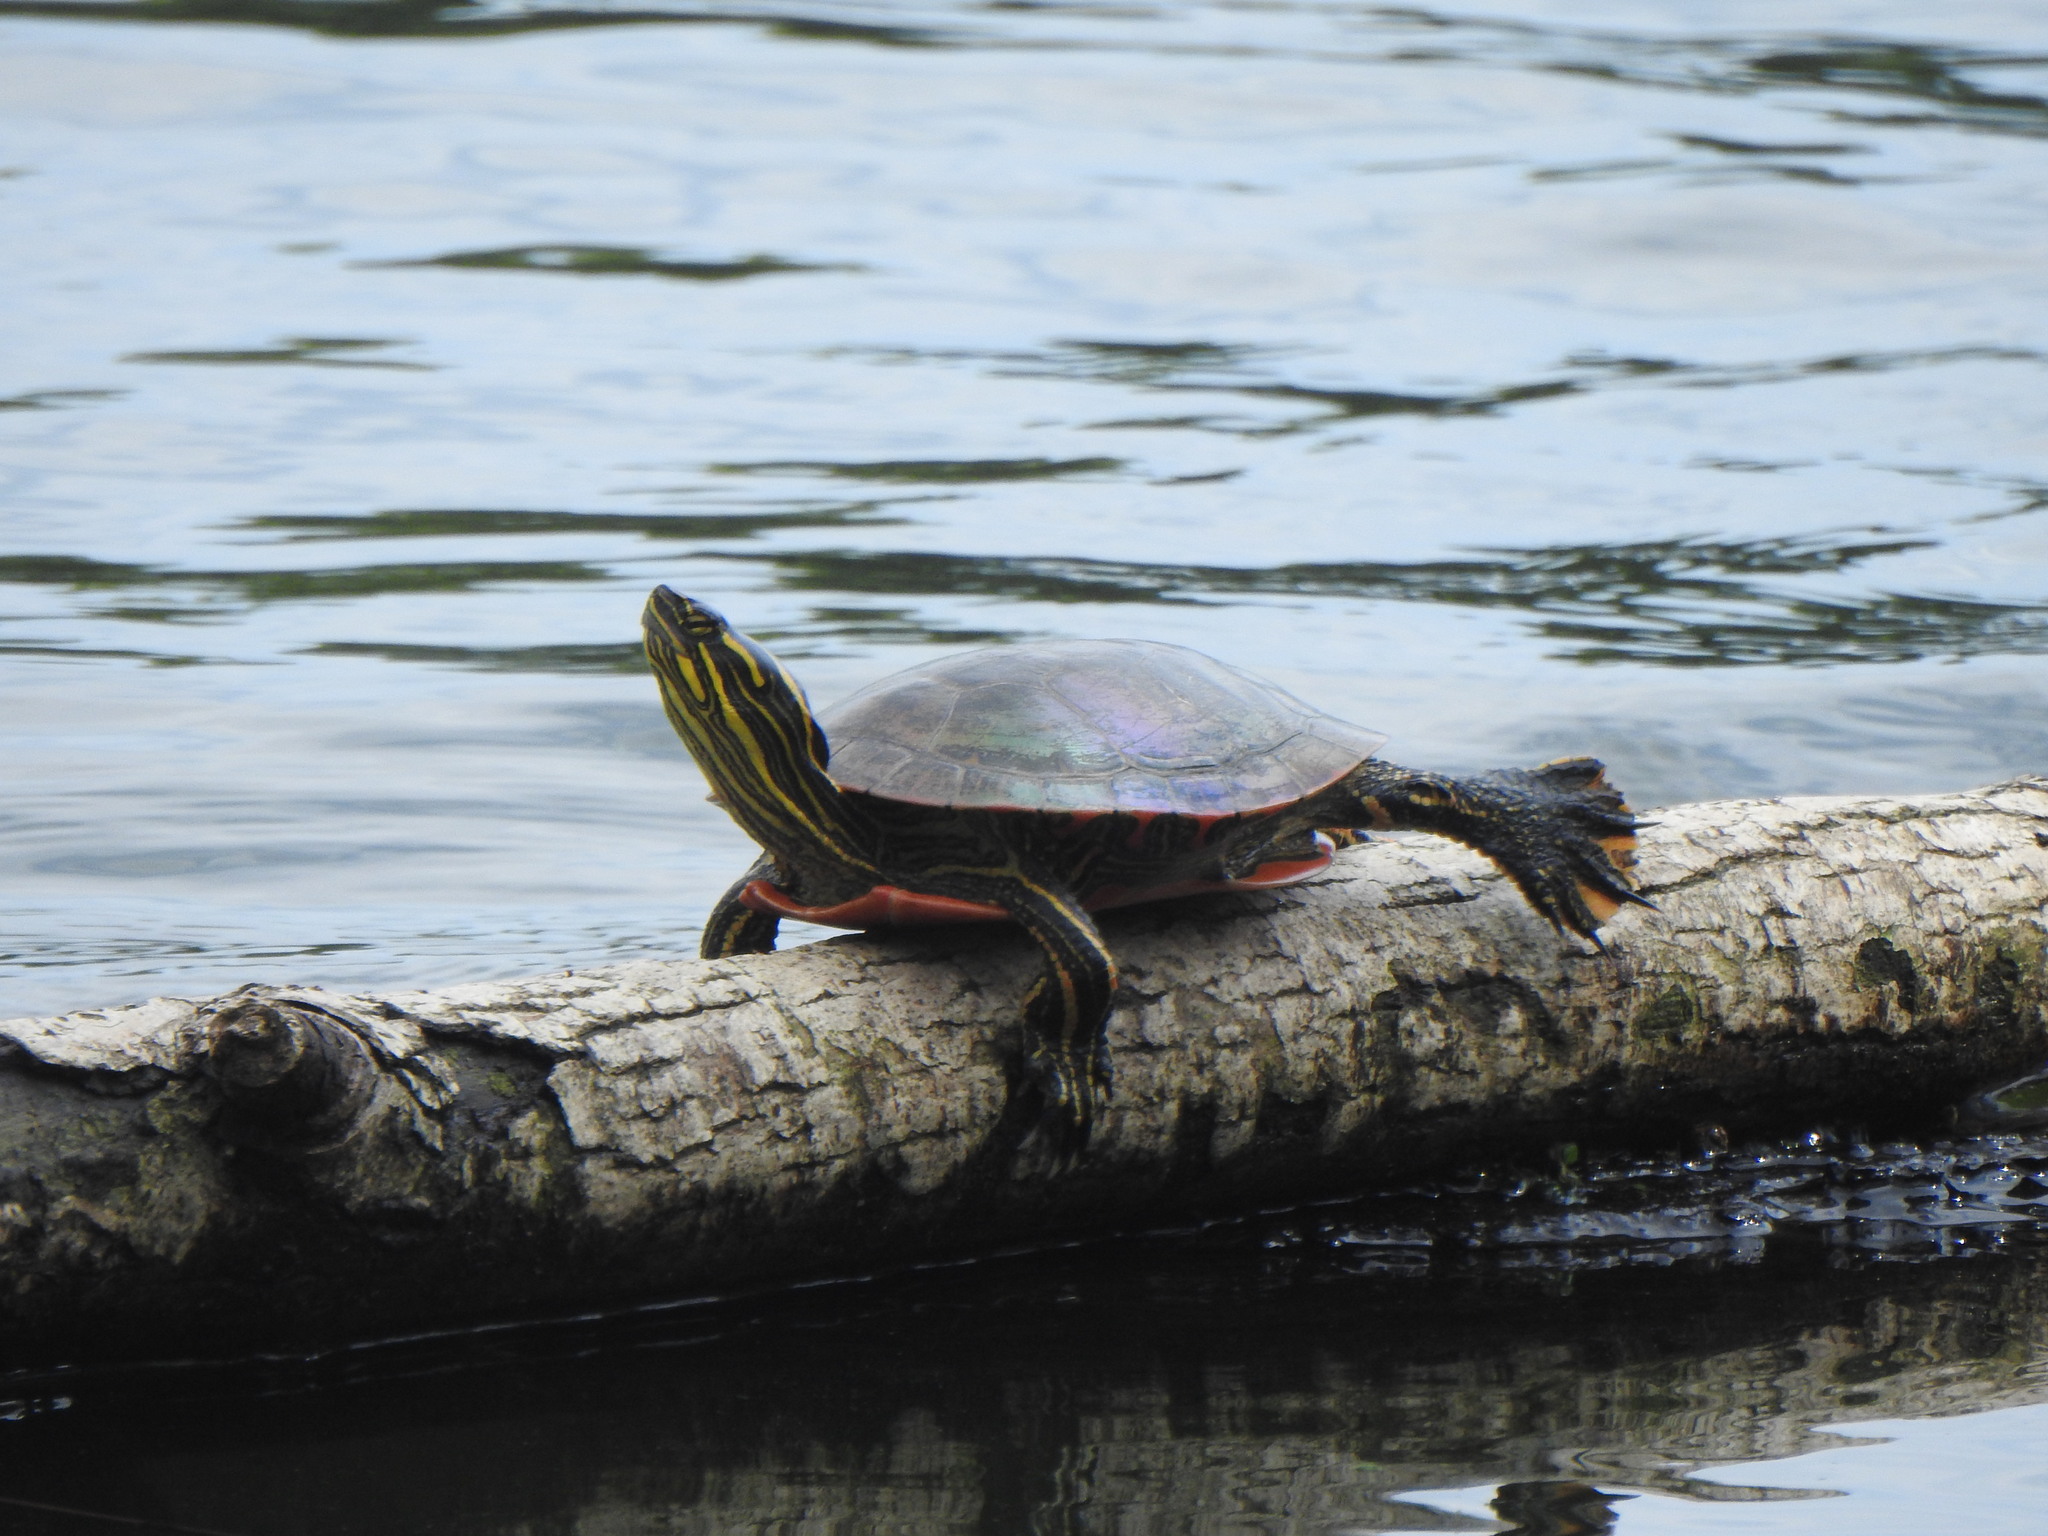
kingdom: Animalia
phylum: Chordata
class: Testudines
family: Emydidae
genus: Chrysemys
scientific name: Chrysemys picta
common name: Painted turtle
